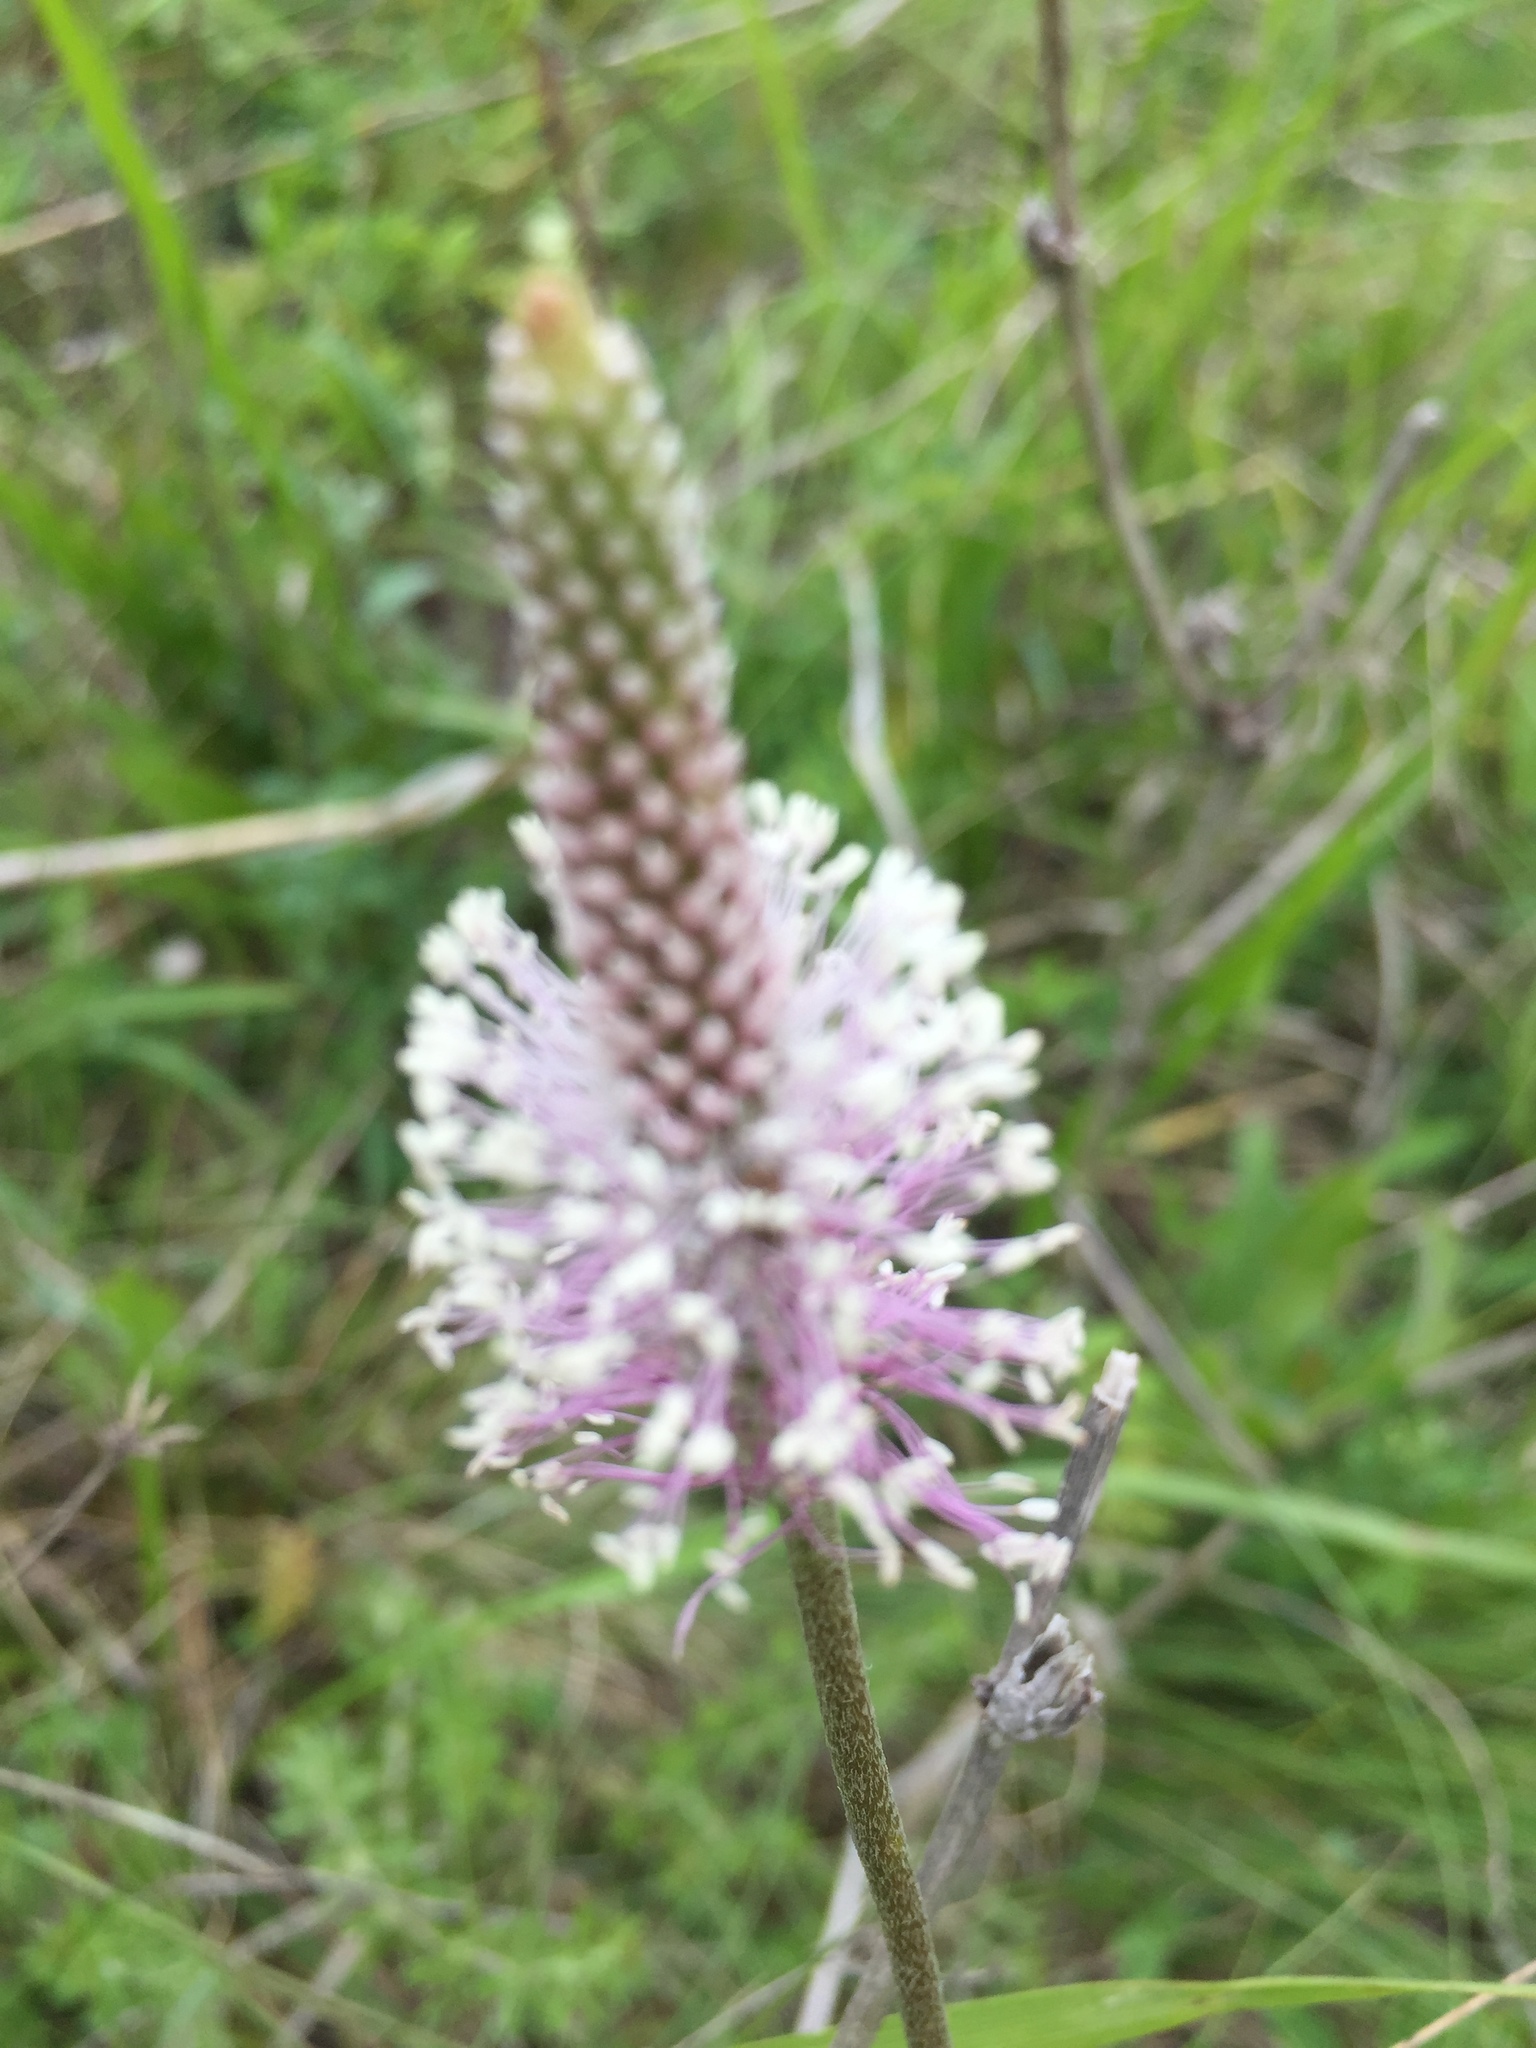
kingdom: Plantae
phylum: Tracheophyta
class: Magnoliopsida
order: Lamiales
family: Plantaginaceae
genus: Plantago
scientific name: Plantago media
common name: Hoary plantain
